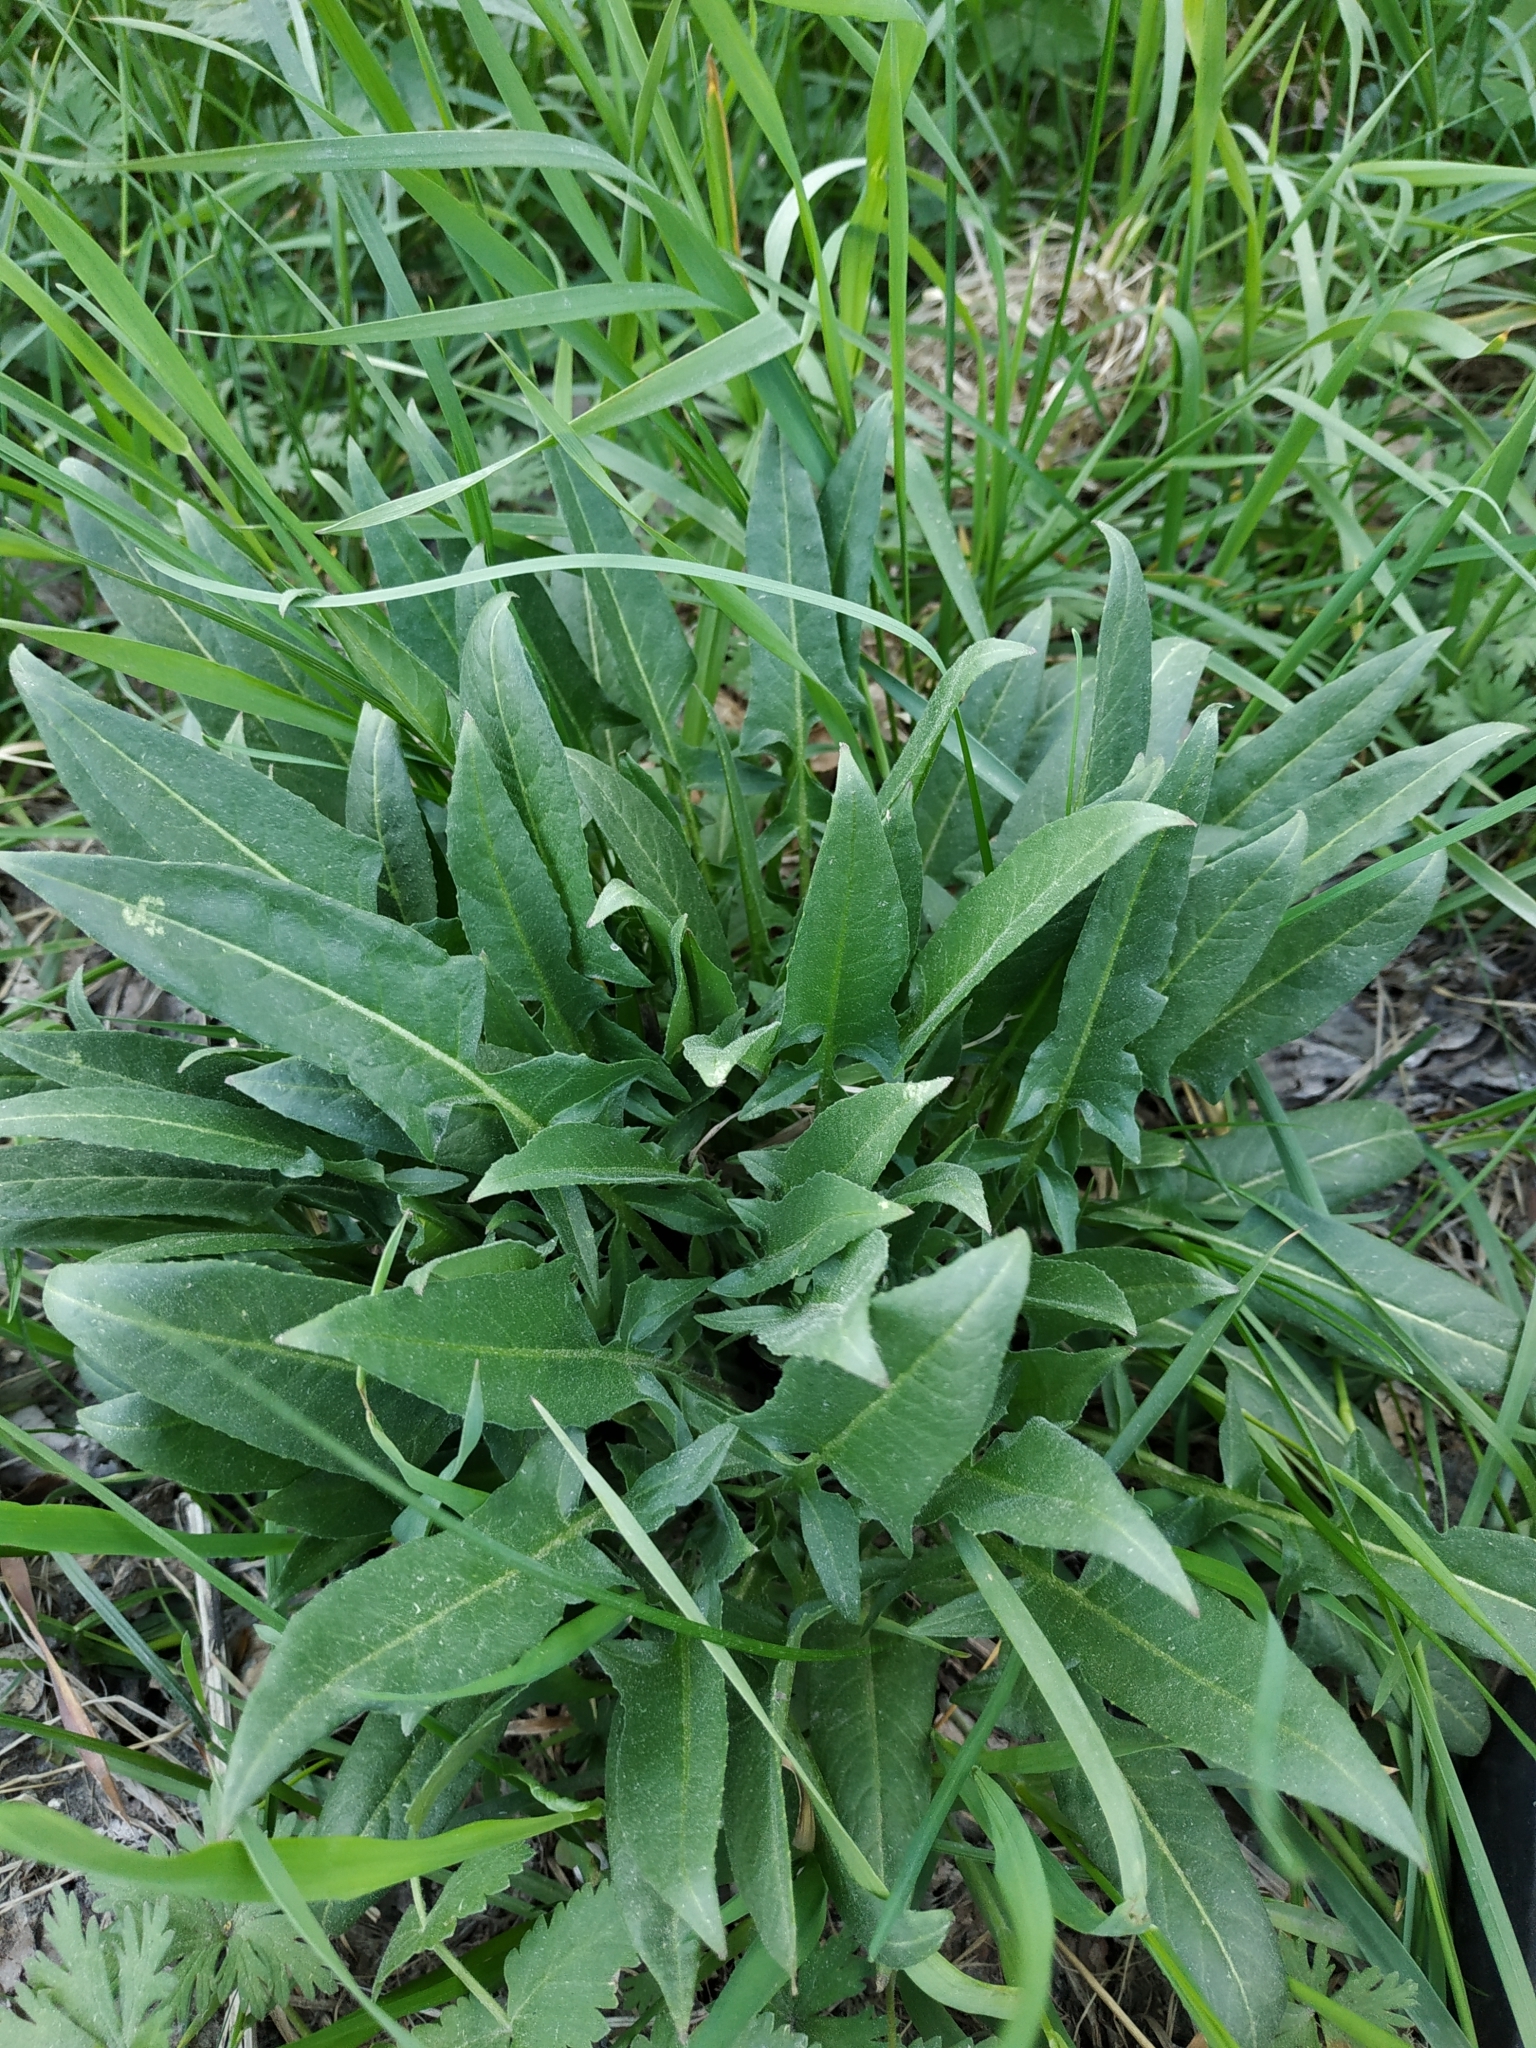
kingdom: Plantae
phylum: Tracheophyta
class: Magnoliopsida
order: Brassicales
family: Brassicaceae
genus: Bunias
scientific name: Bunias orientalis
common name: Warty-cabbage
